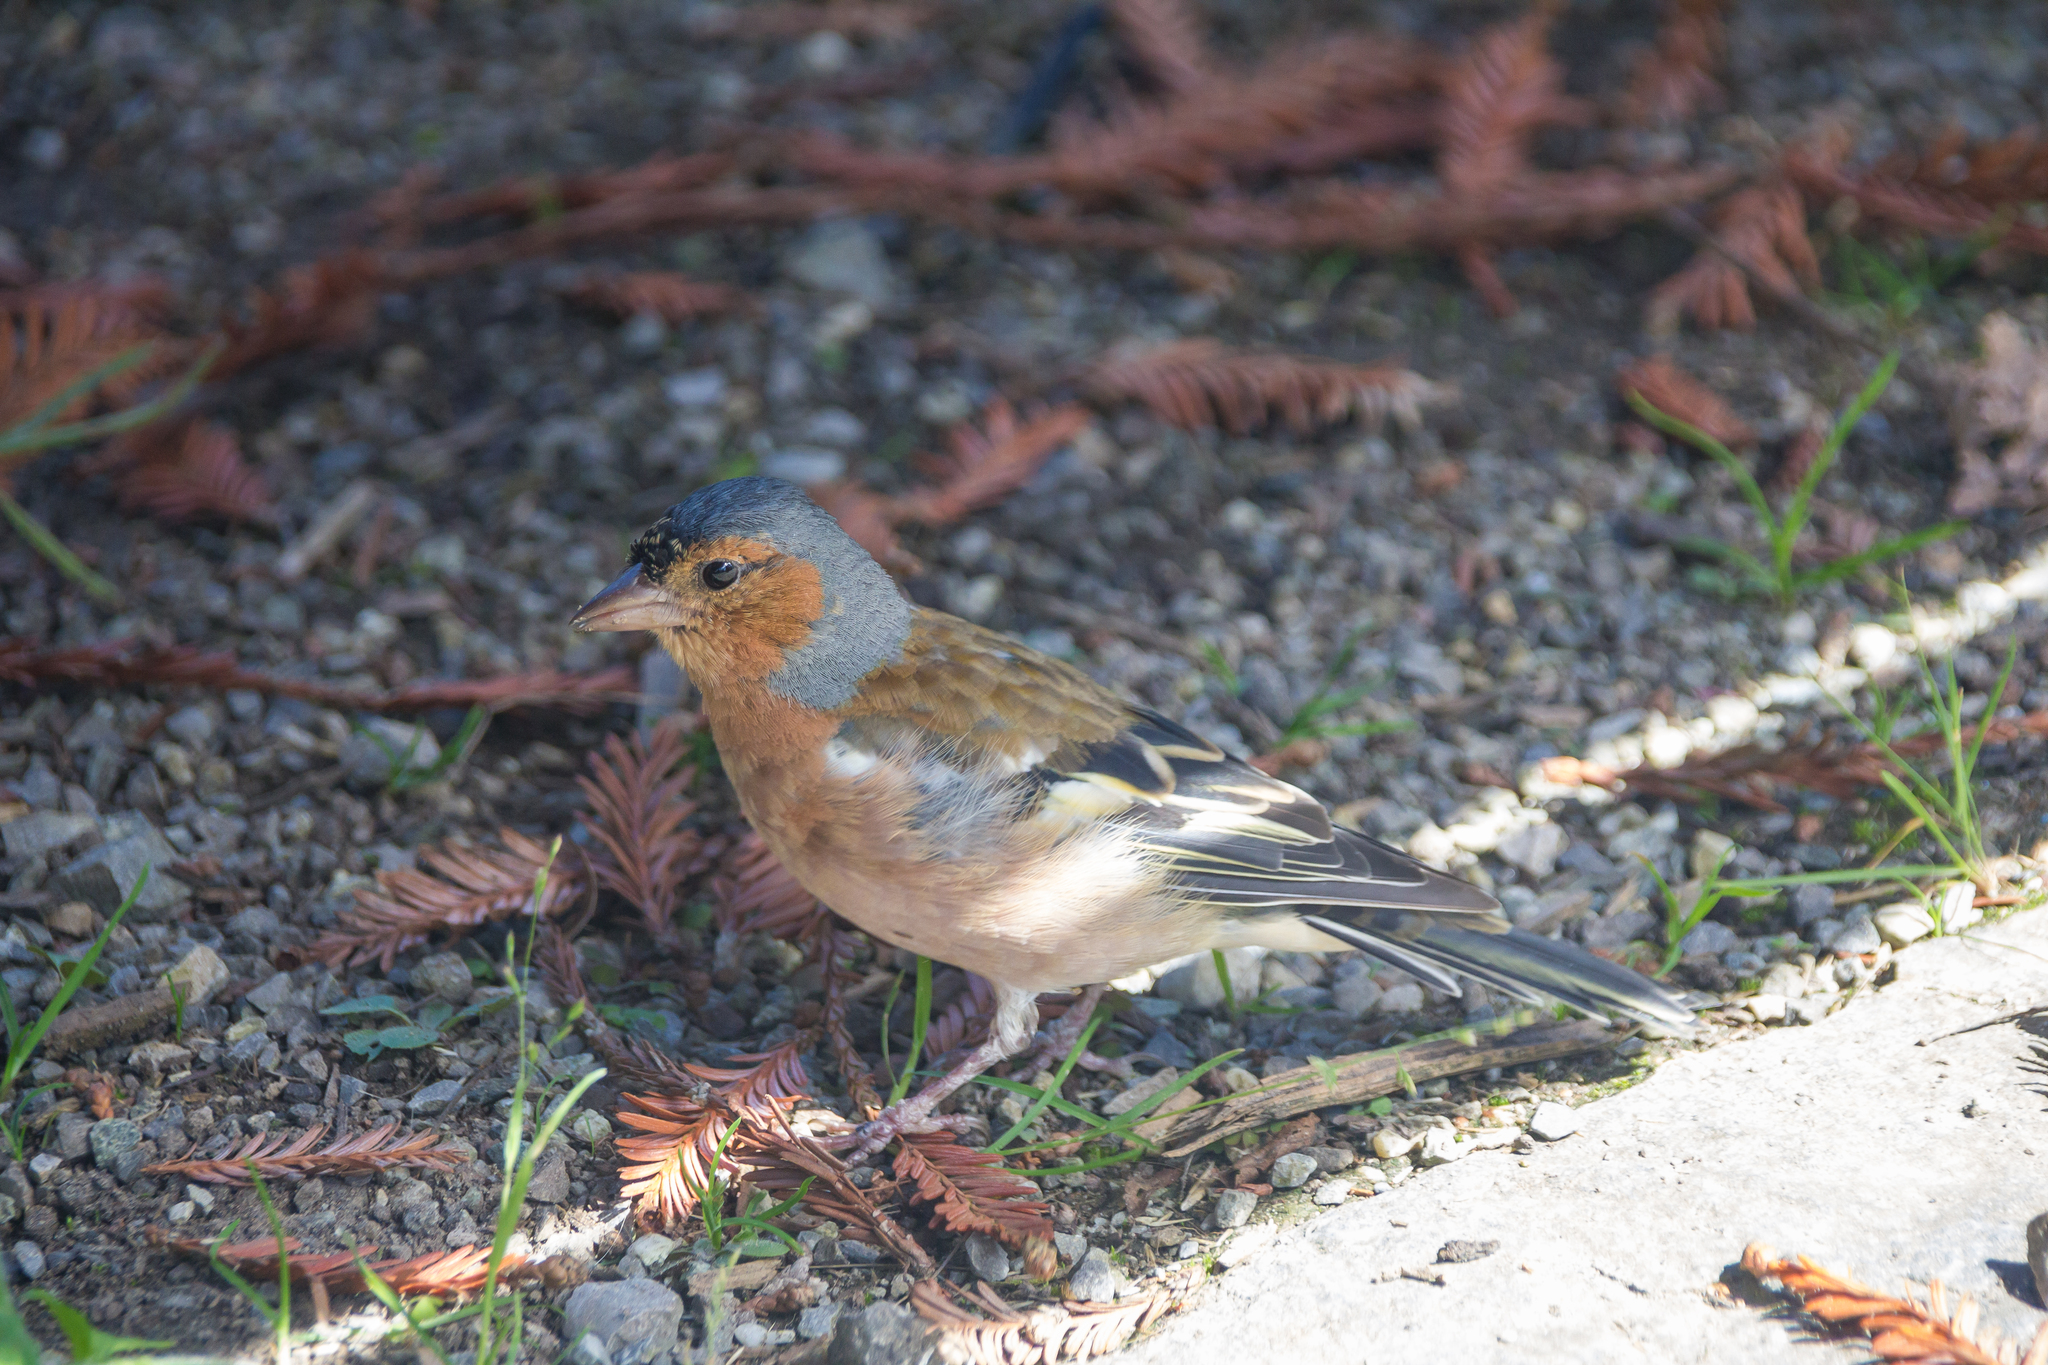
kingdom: Animalia
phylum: Chordata
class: Aves
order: Passeriformes
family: Fringillidae
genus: Fringilla
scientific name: Fringilla coelebs
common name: Common chaffinch
